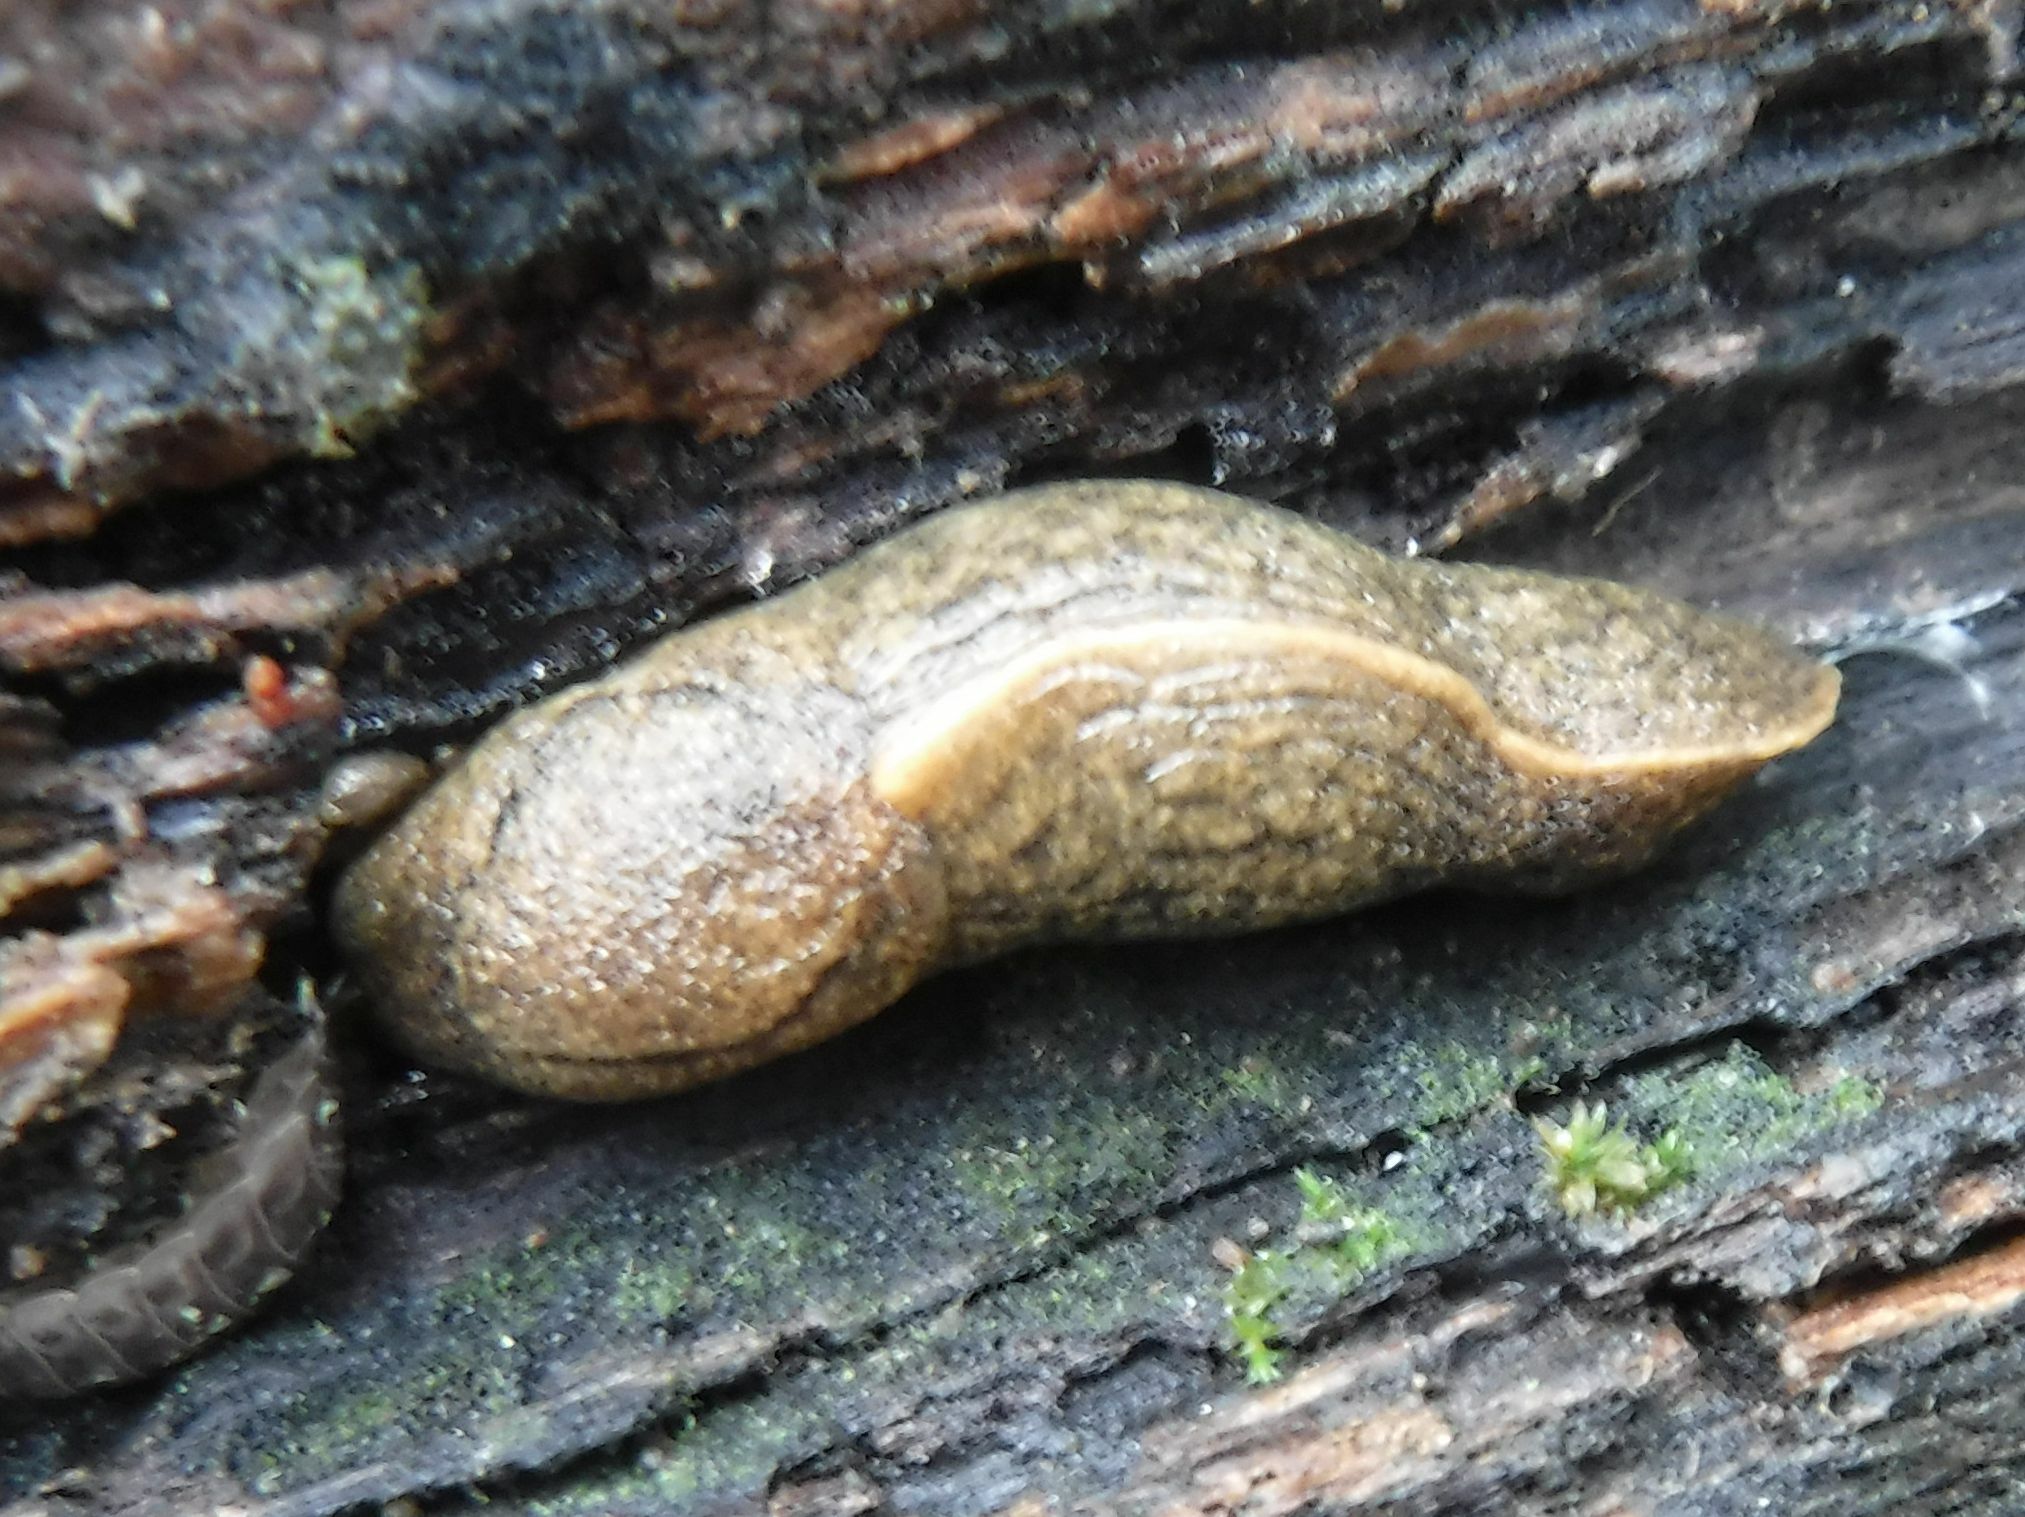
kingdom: Animalia
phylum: Mollusca
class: Gastropoda
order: Stylommatophora
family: Milacidae
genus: Tandonia
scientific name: Tandonia sowerbyi
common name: Keeled slug
